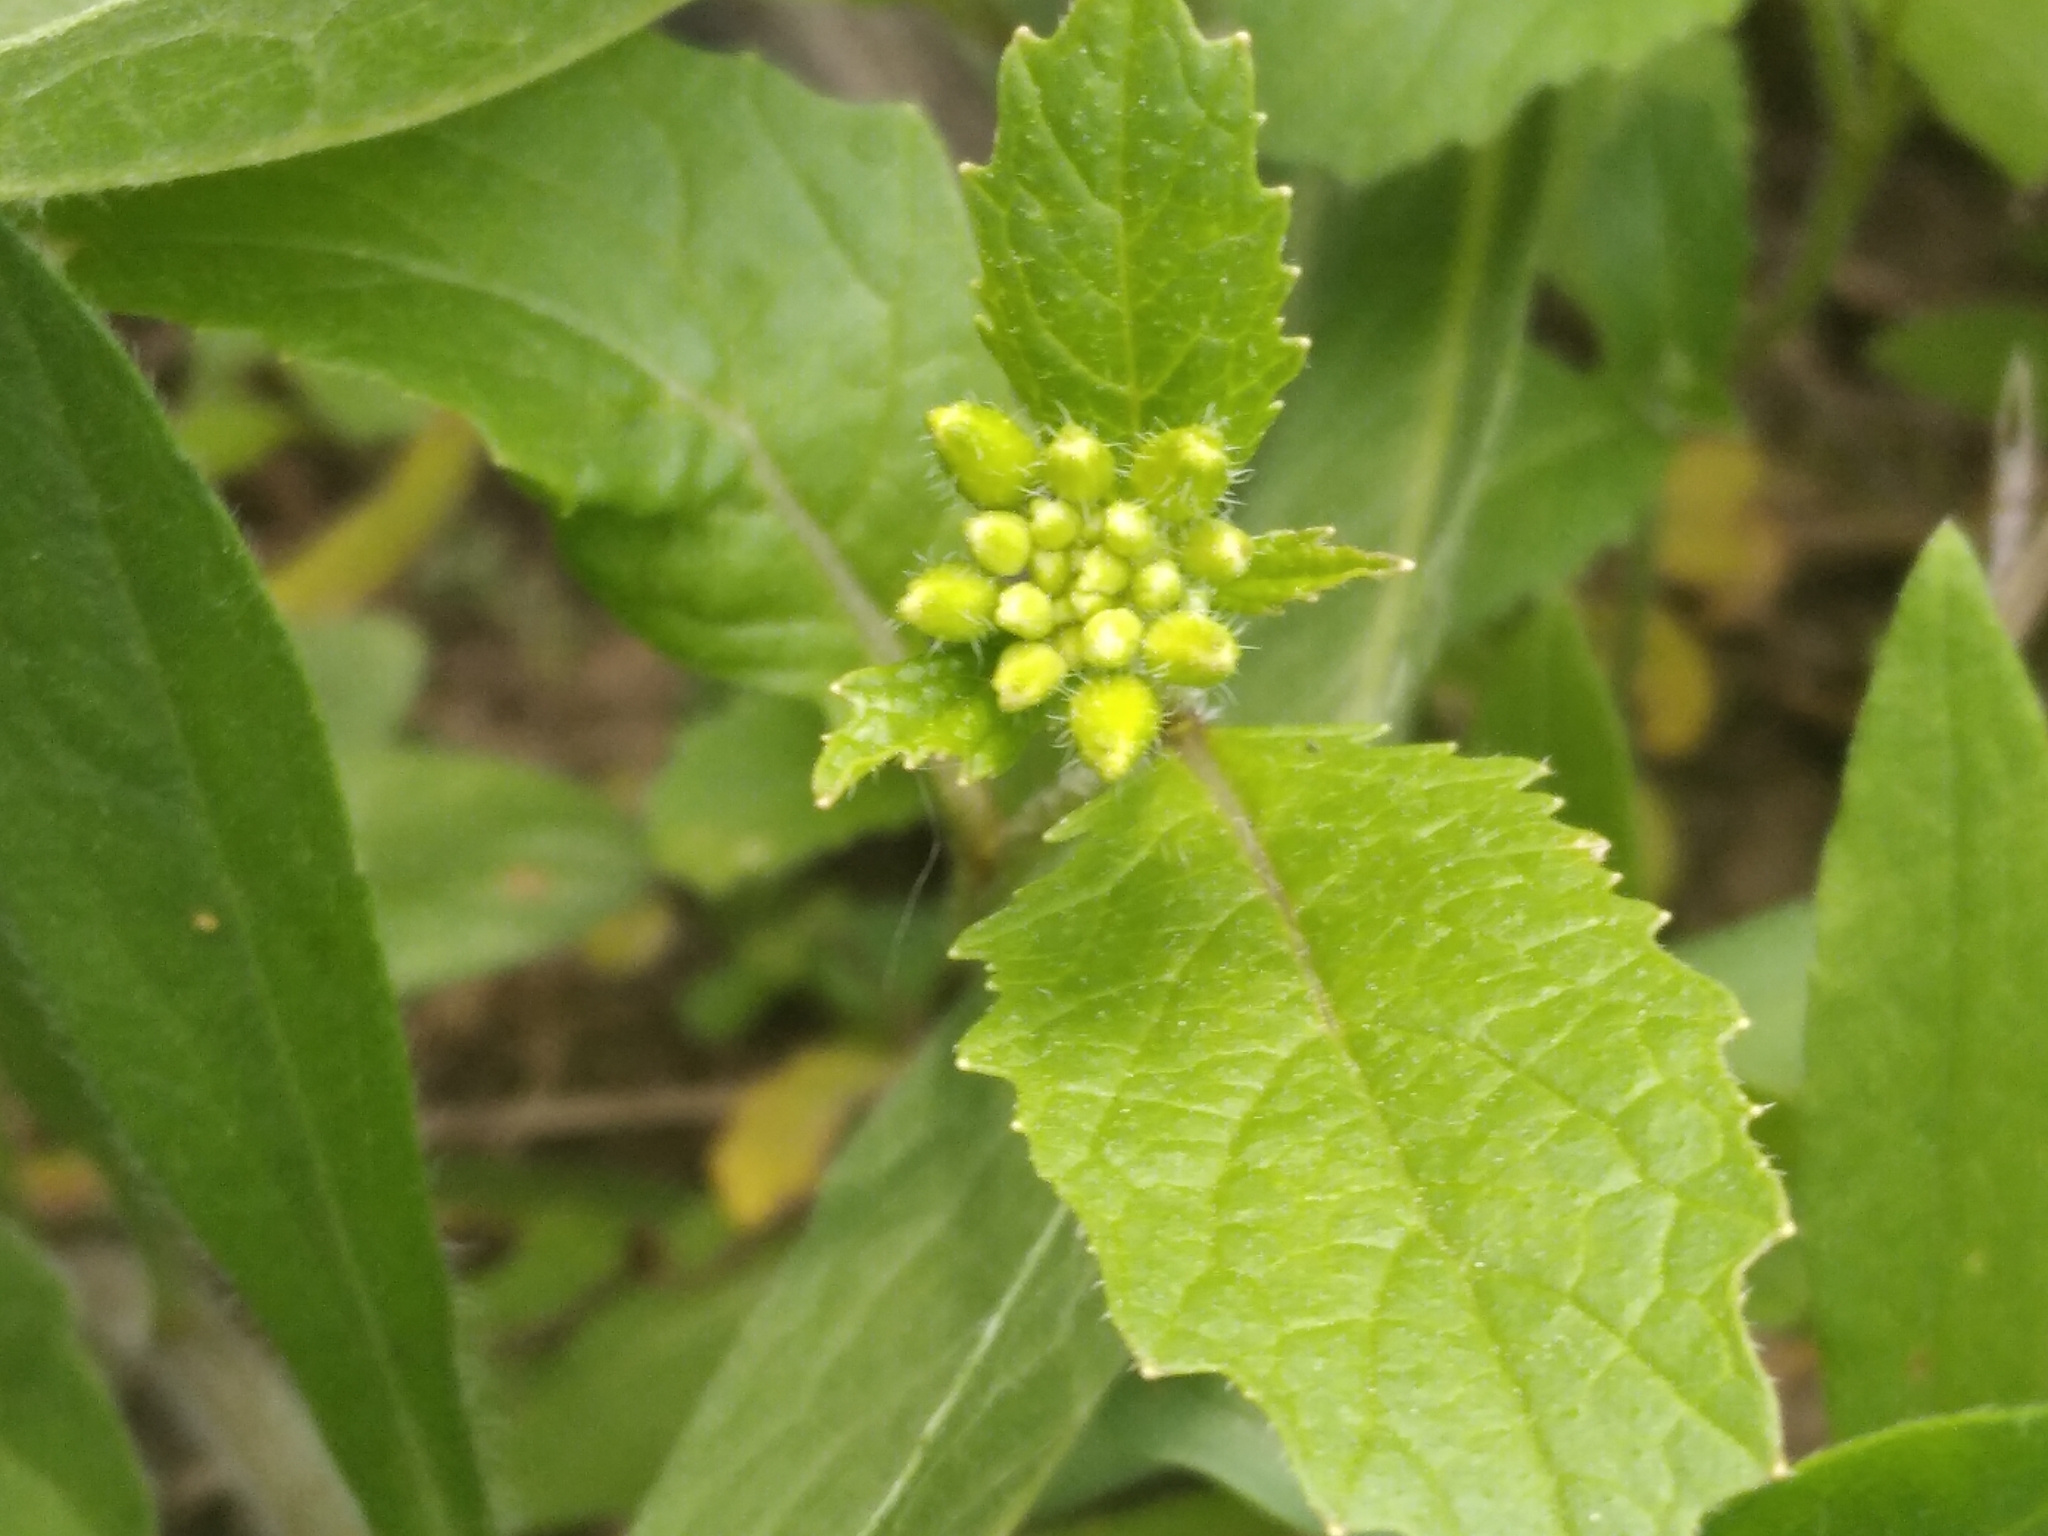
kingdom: Plantae
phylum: Tracheophyta
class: Magnoliopsida
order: Brassicales
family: Brassicaceae
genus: Sinapis
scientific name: Sinapis arvensis
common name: Charlock
